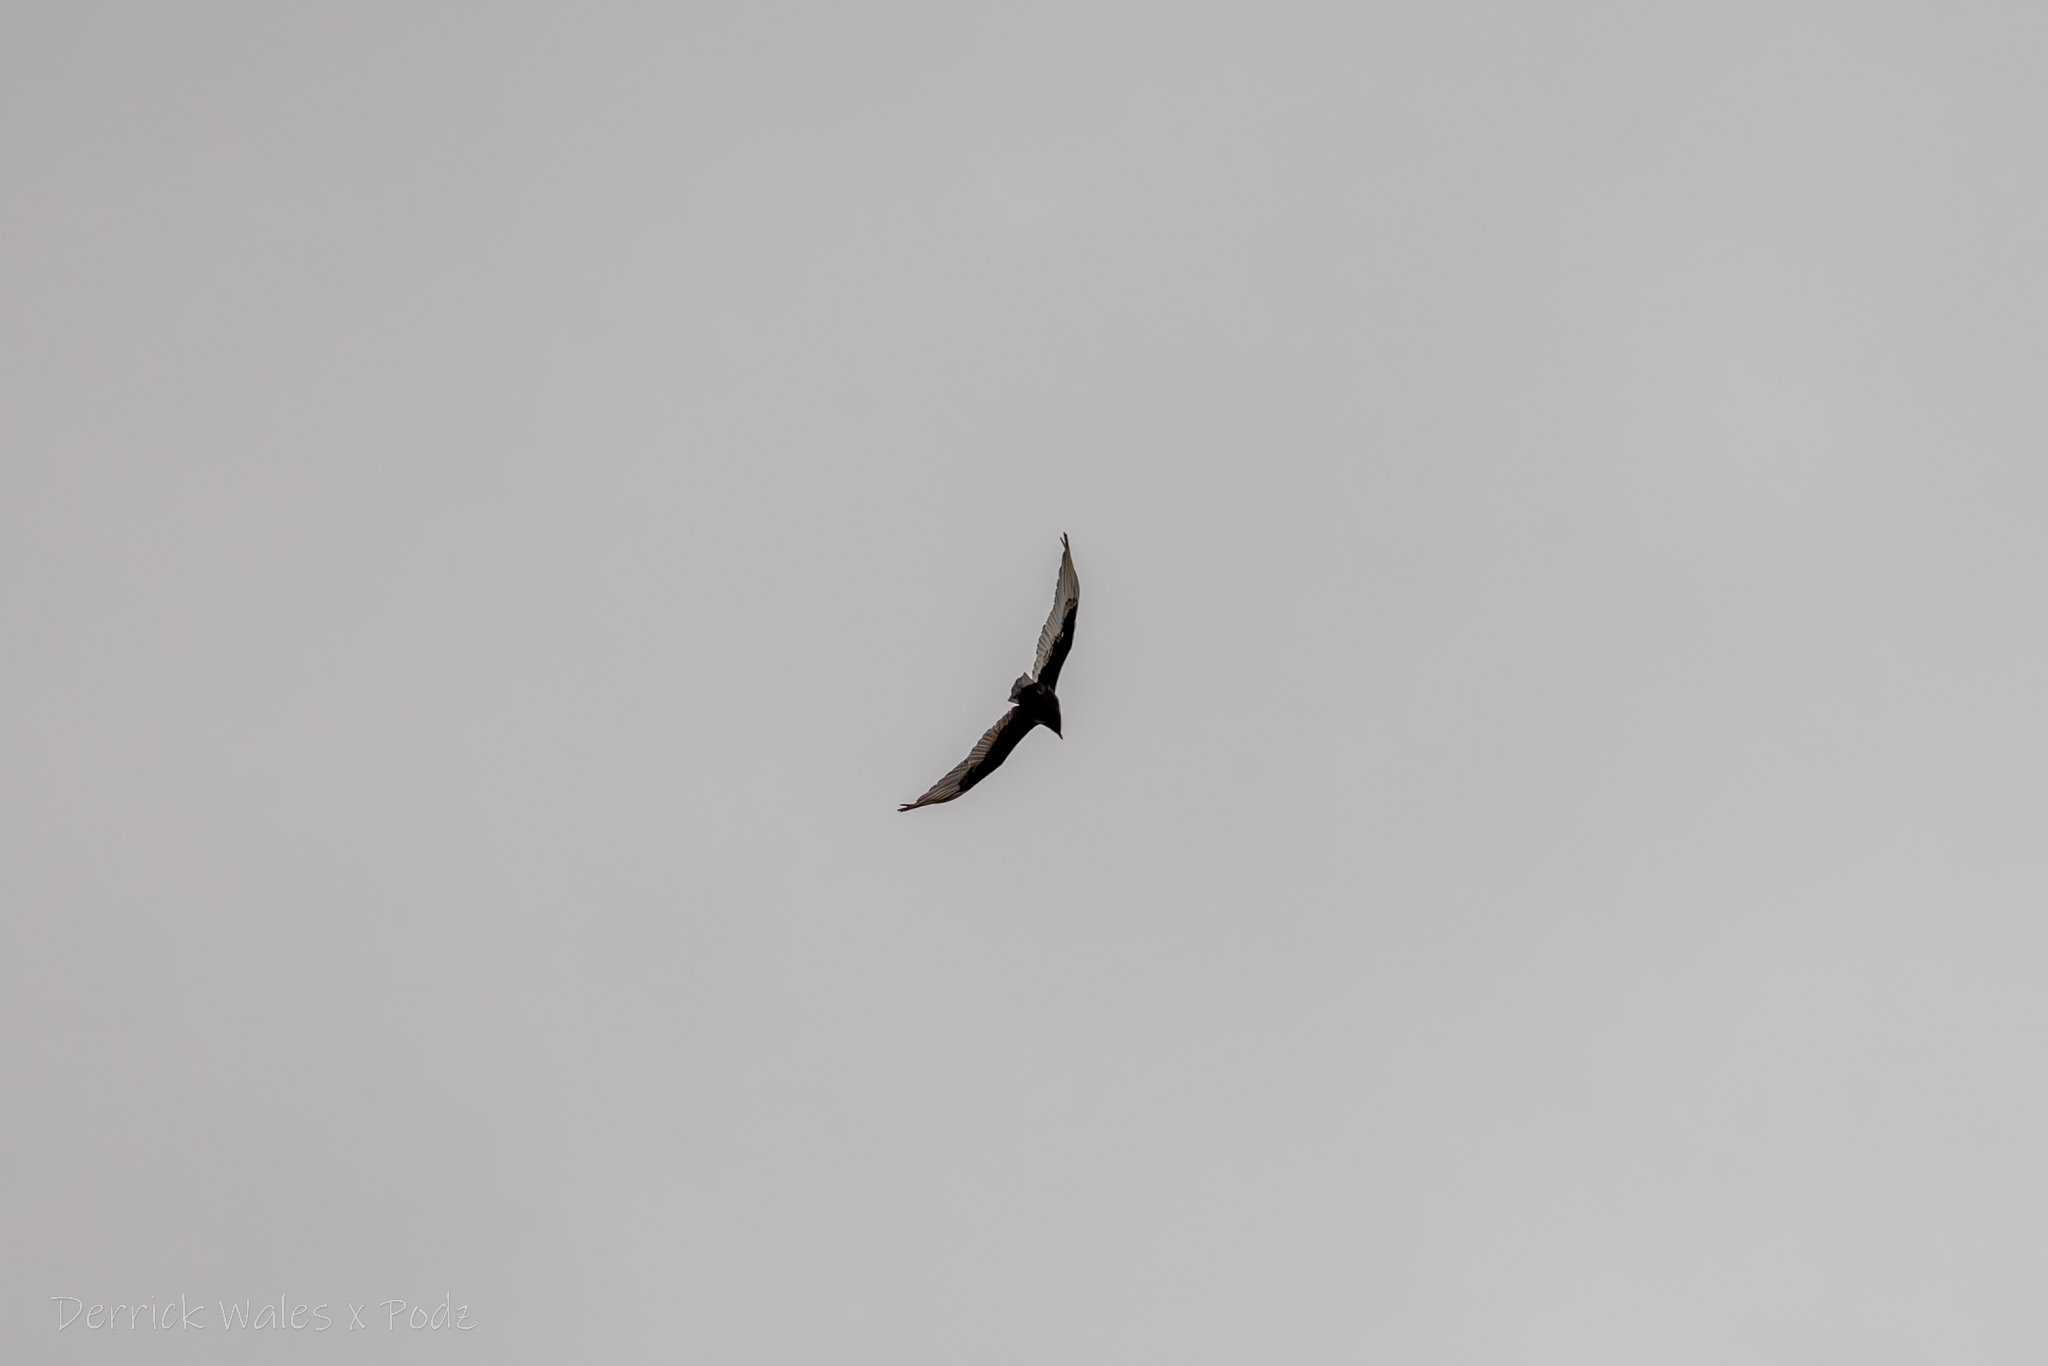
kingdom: Animalia
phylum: Chordata
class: Aves
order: Accipitriformes
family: Cathartidae
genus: Cathartes
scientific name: Cathartes aura
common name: Turkey vulture
